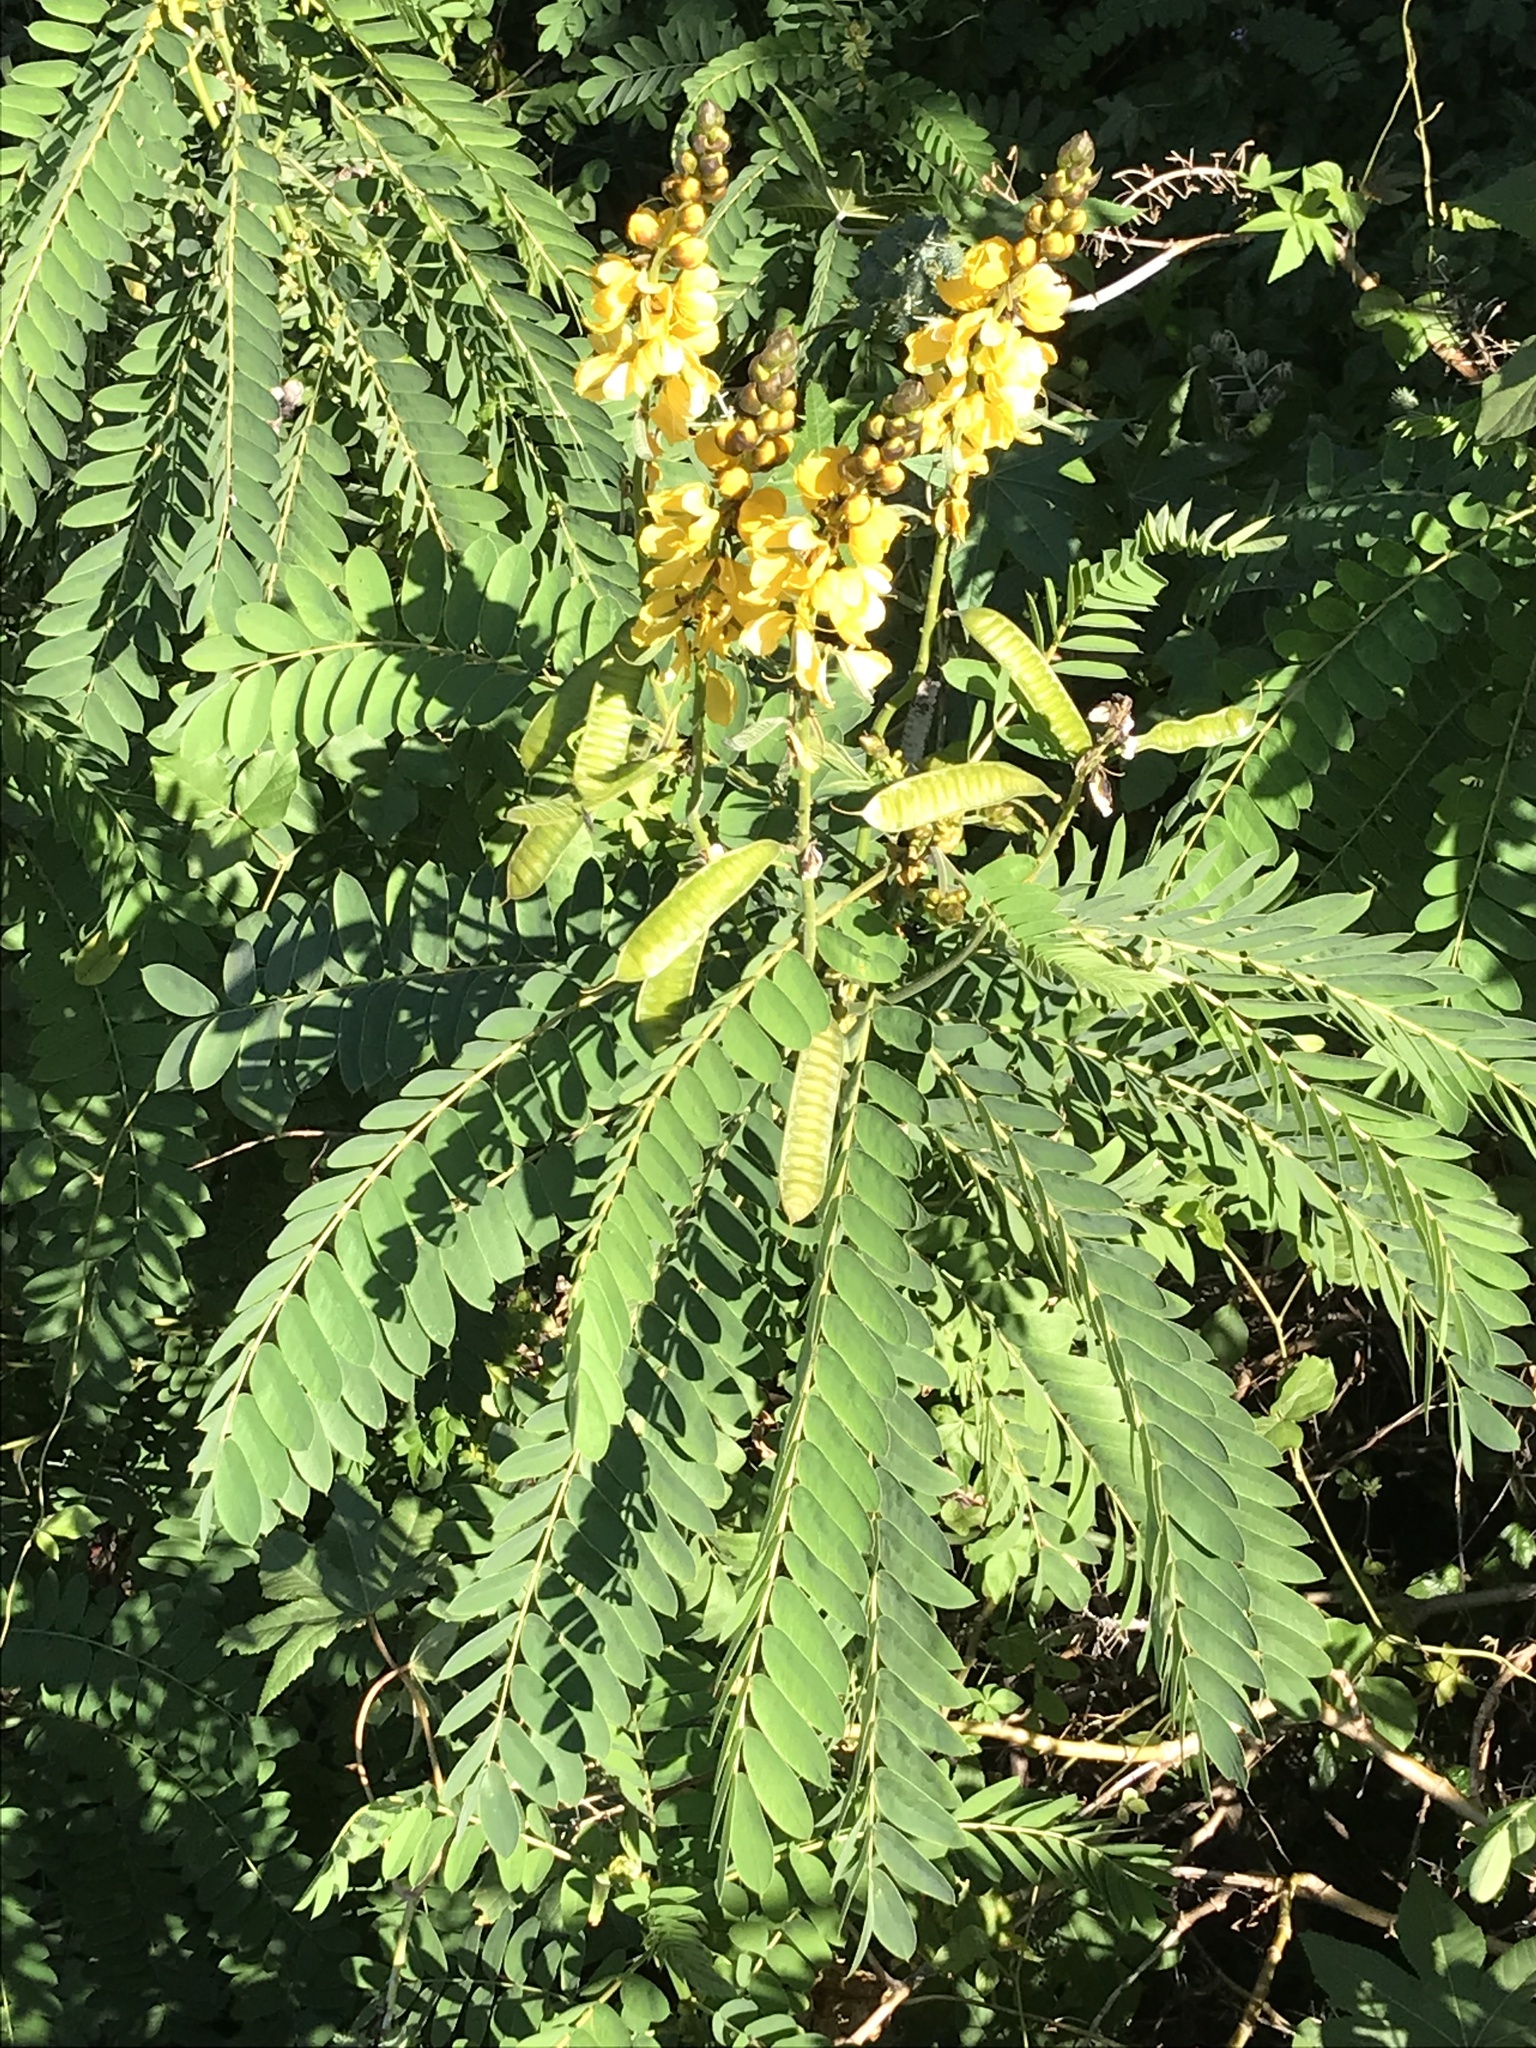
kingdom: Plantae
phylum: Tracheophyta
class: Magnoliopsida
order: Fabales
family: Fabaceae
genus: Senna
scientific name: Senna didymobotrya
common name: African senna
